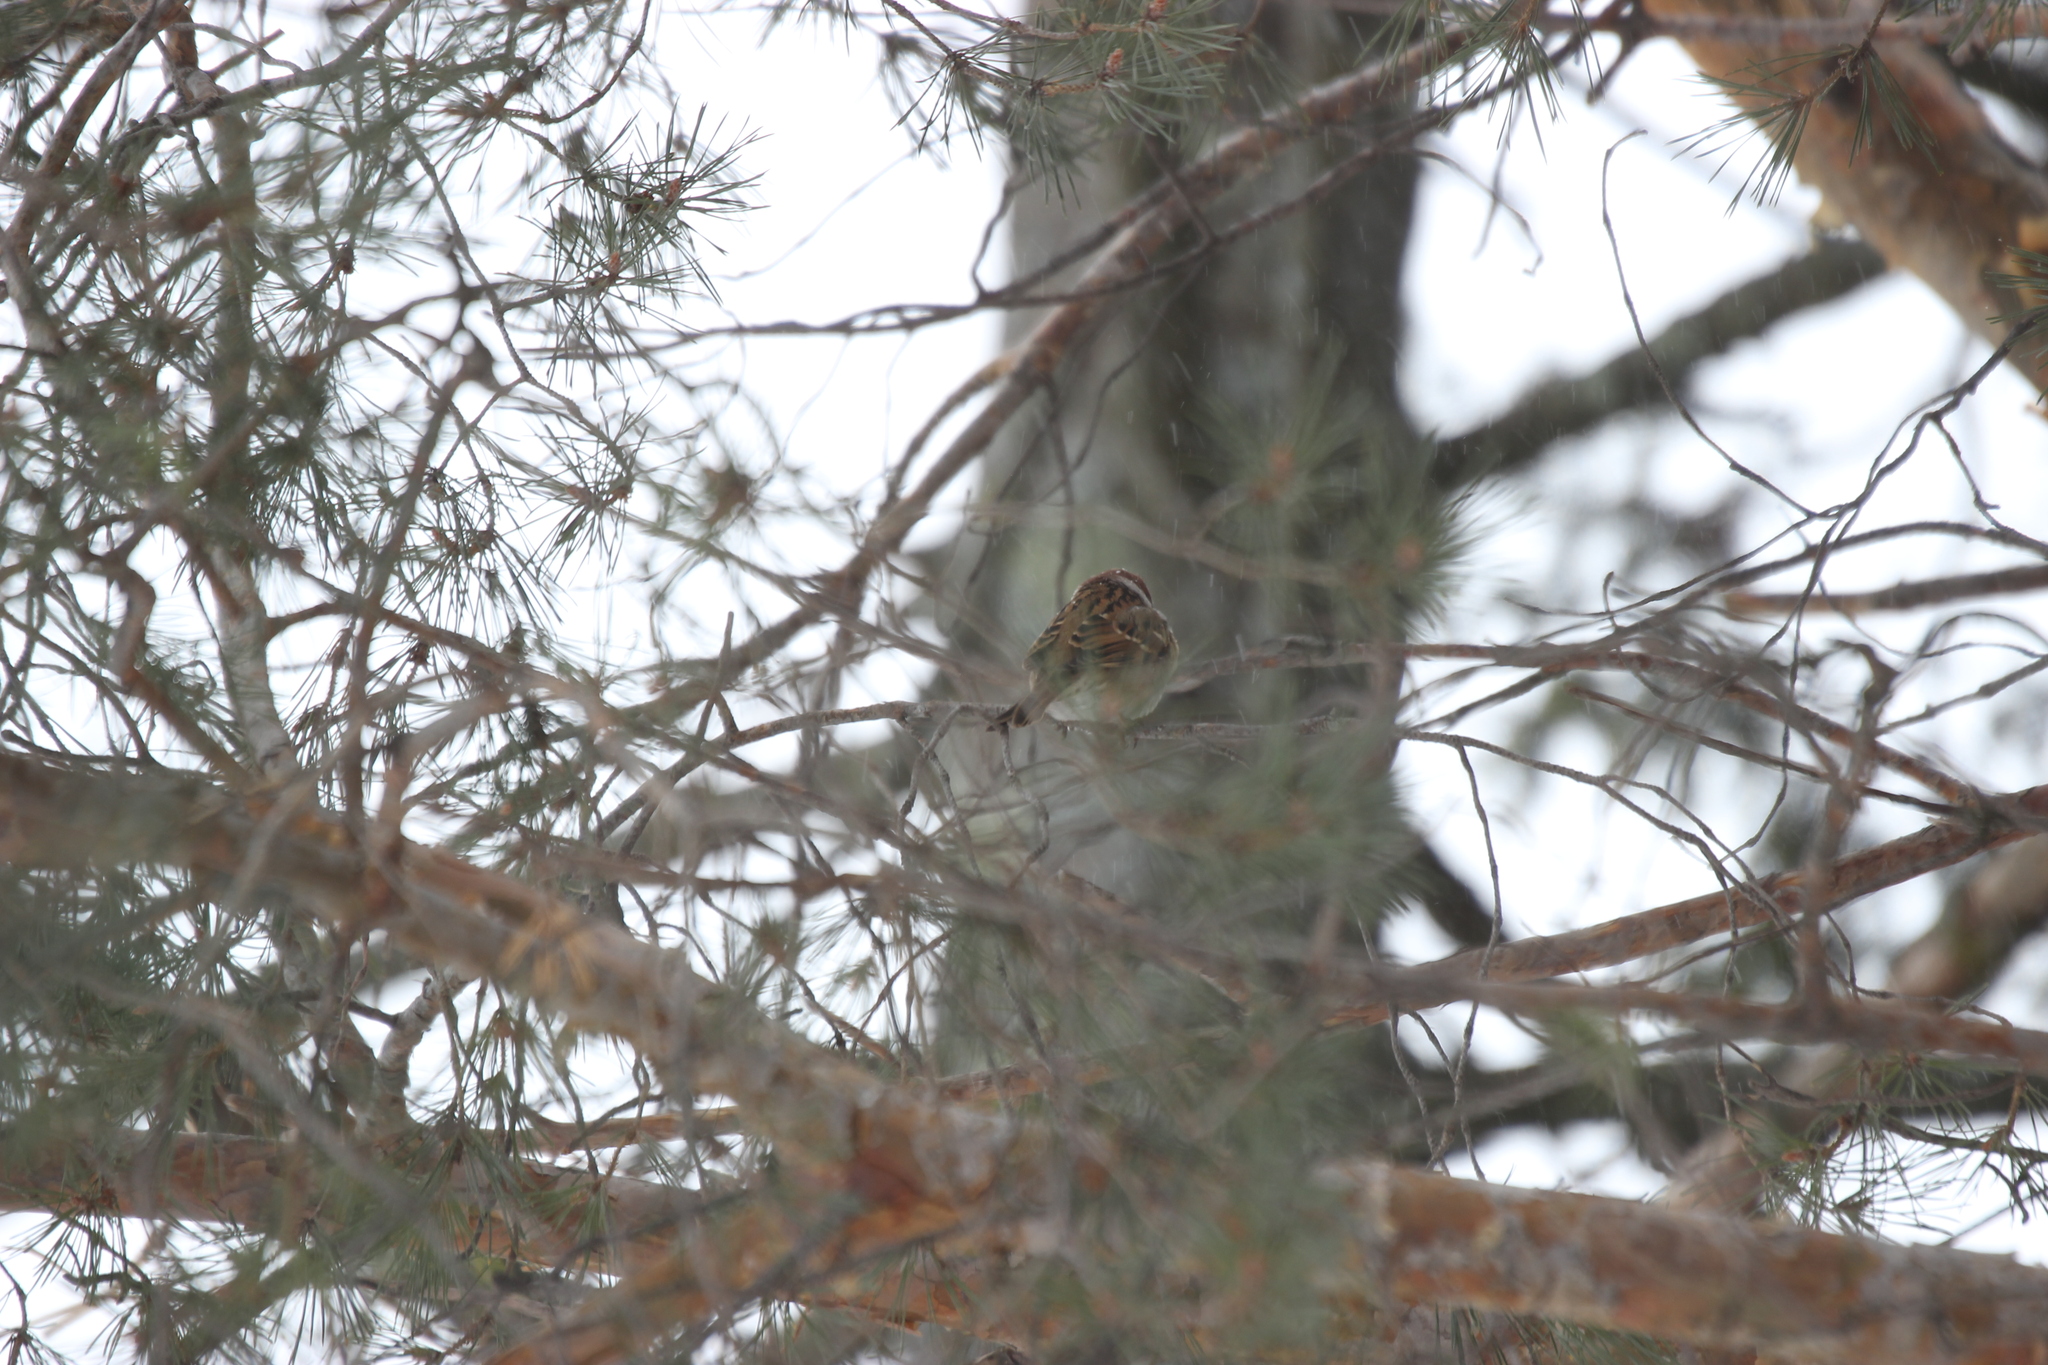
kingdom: Animalia
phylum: Chordata
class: Aves
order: Passeriformes
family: Passeridae
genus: Passer
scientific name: Passer montanus
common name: Eurasian tree sparrow
